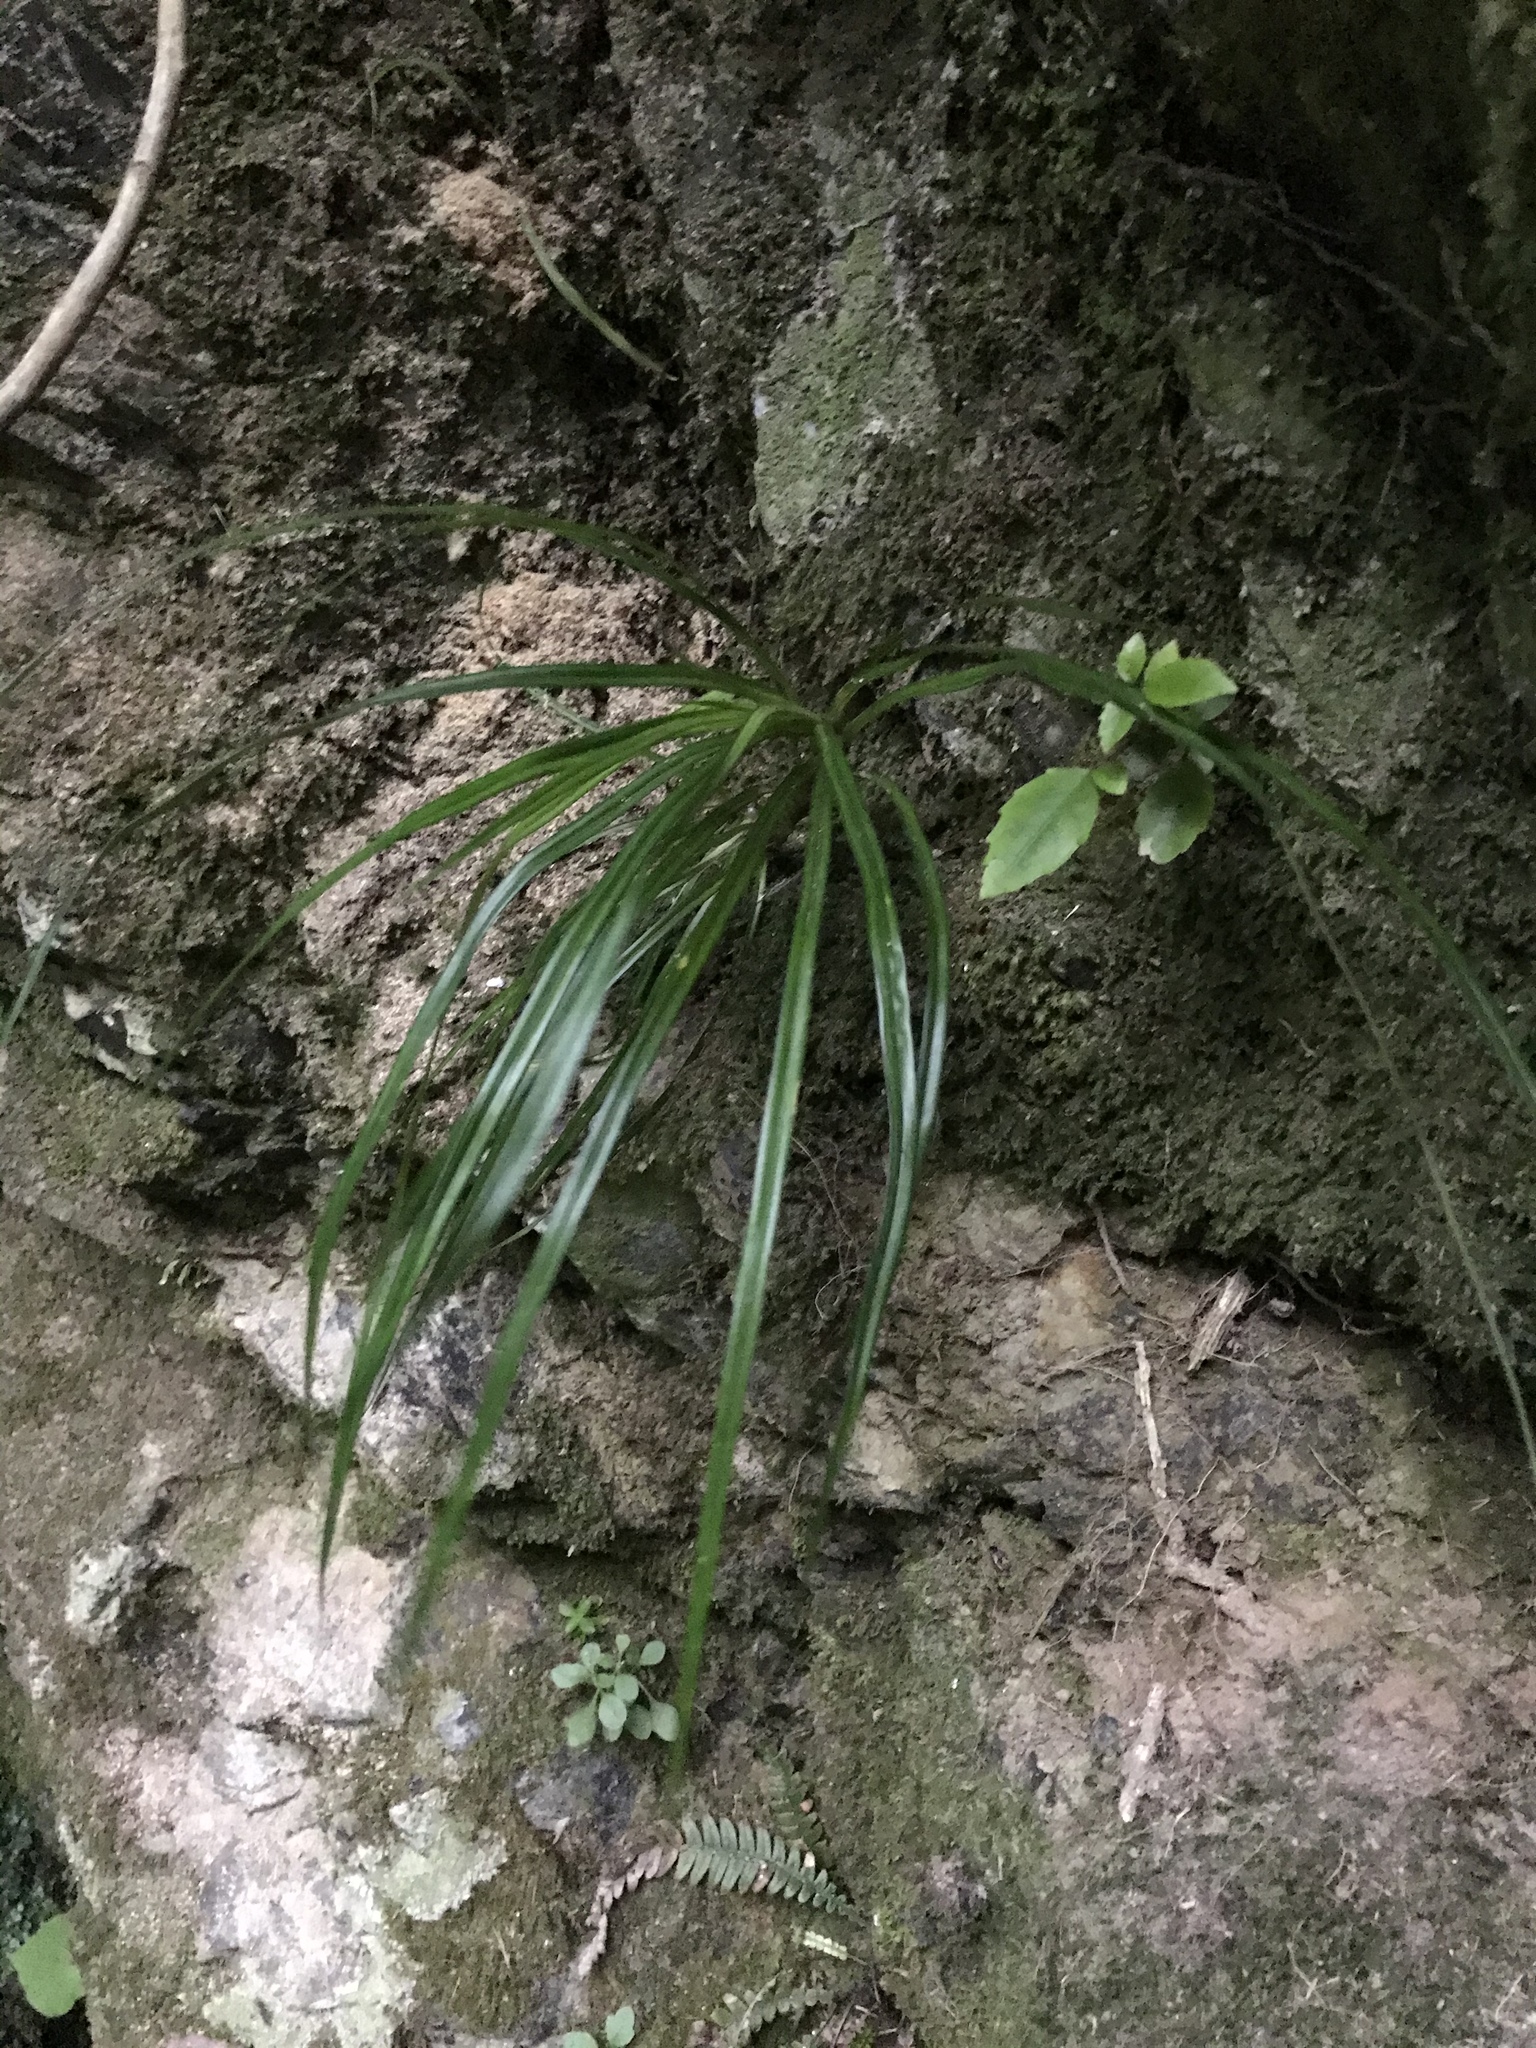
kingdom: Plantae
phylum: Tracheophyta
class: Liliopsida
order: Pandanales
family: Pandanaceae
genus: Freycinetia
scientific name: Freycinetia banksii
